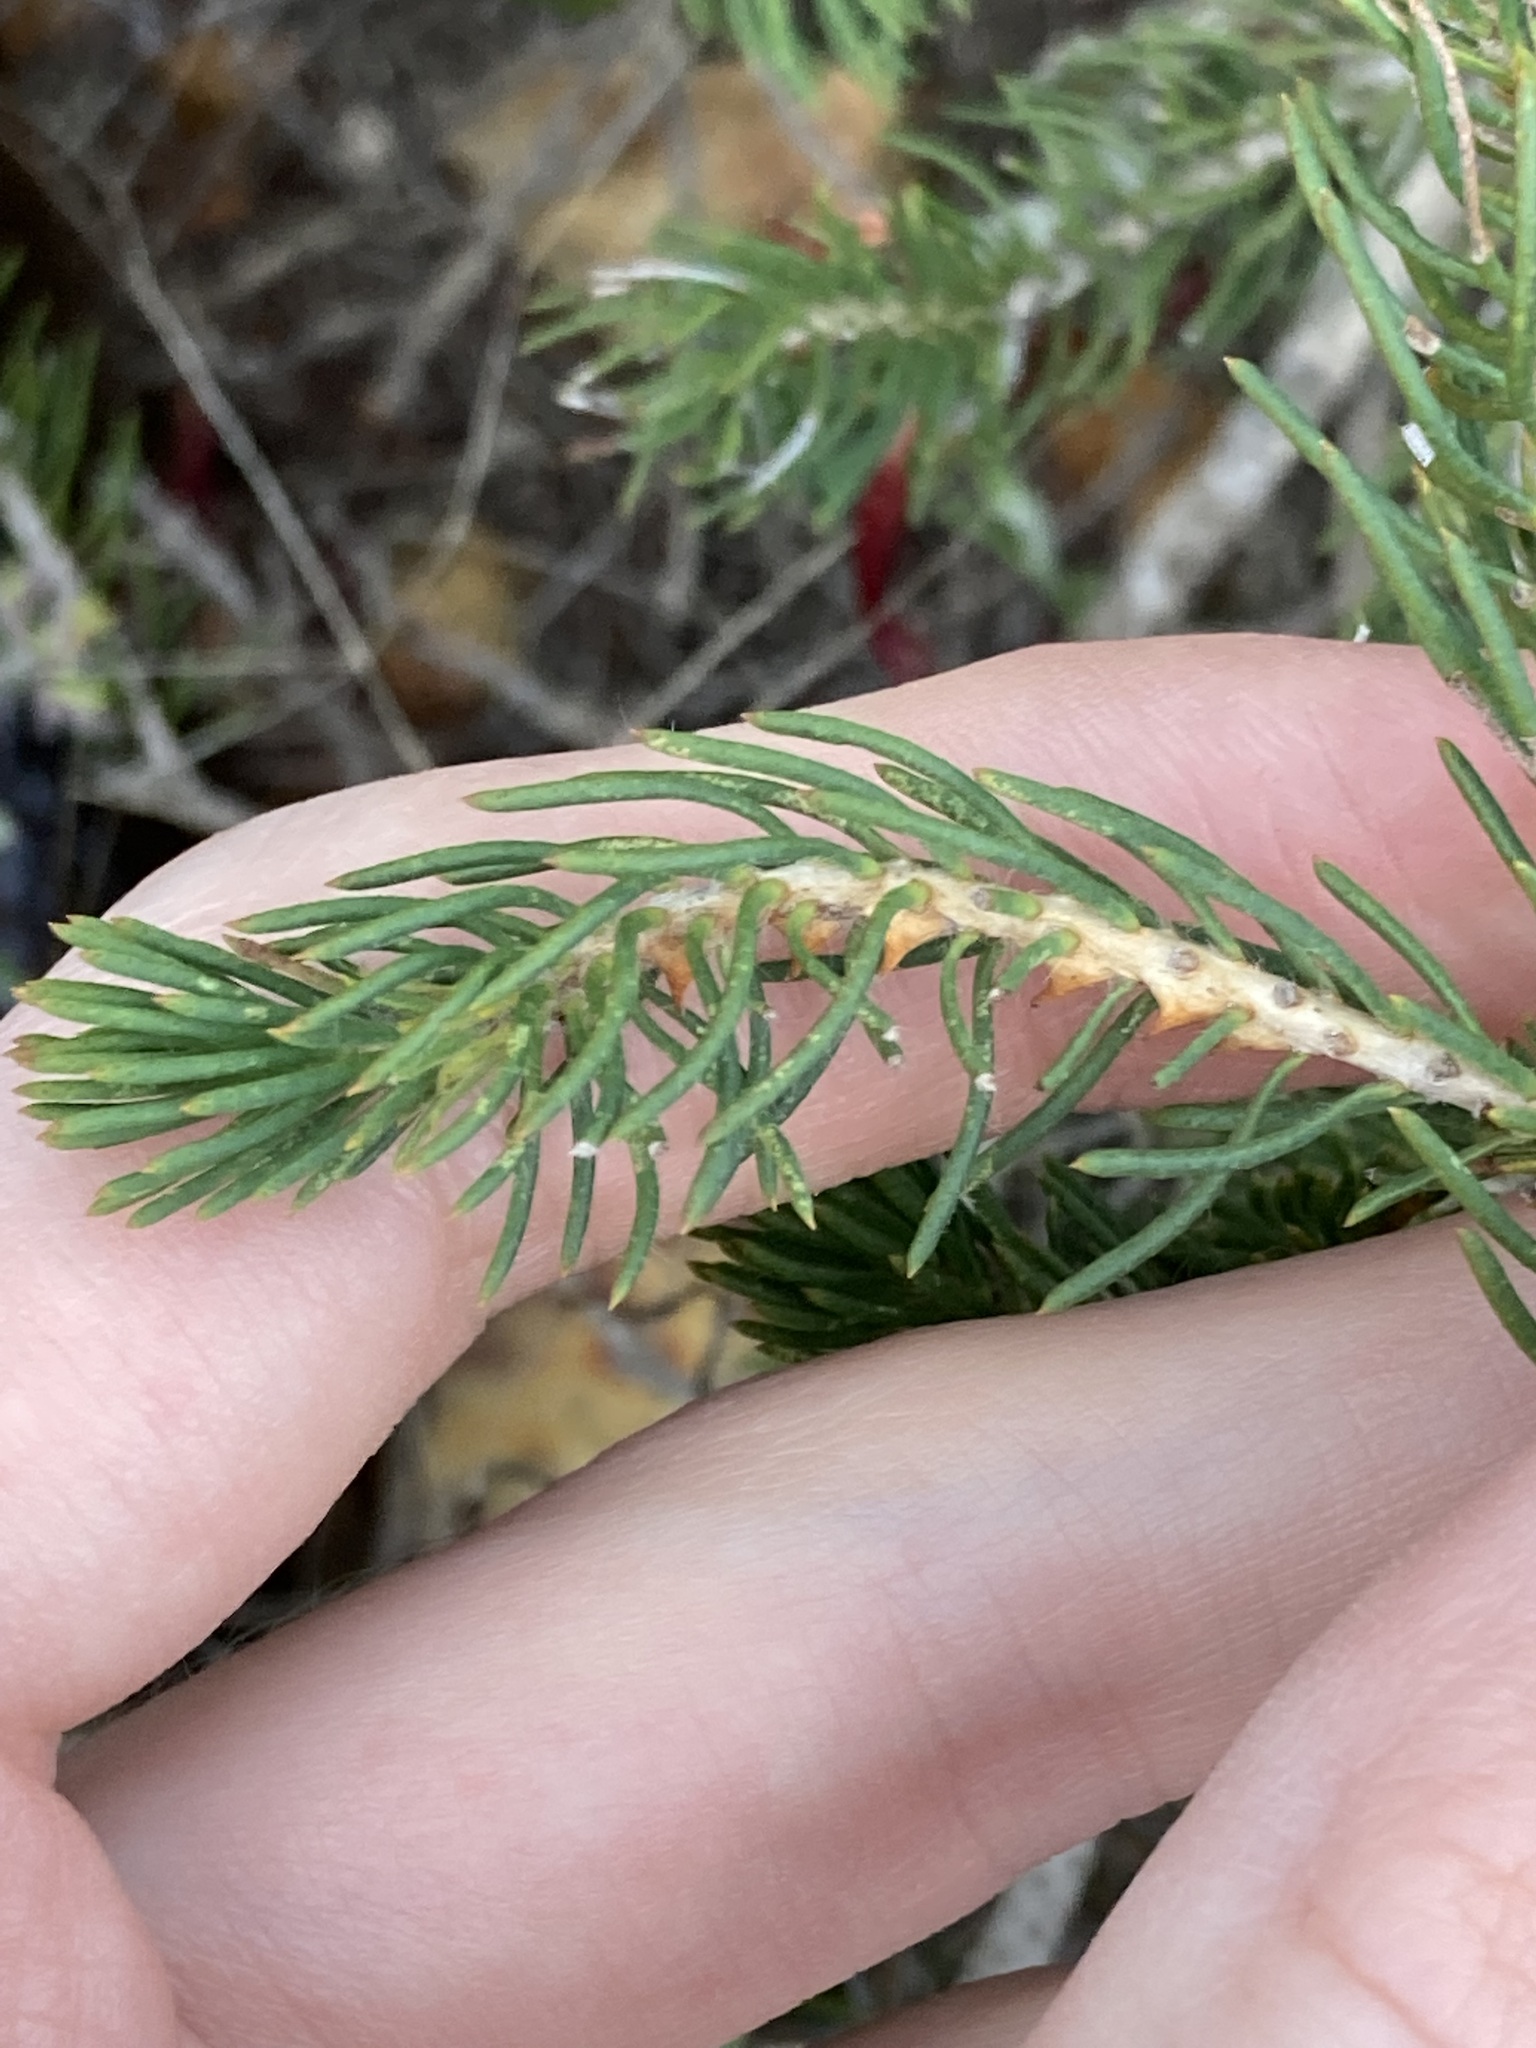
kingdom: Plantae
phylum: Tracheophyta
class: Magnoliopsida
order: Myrtales
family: Myrtaceae
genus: Melaleuca
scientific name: Melaleuca cruenta
